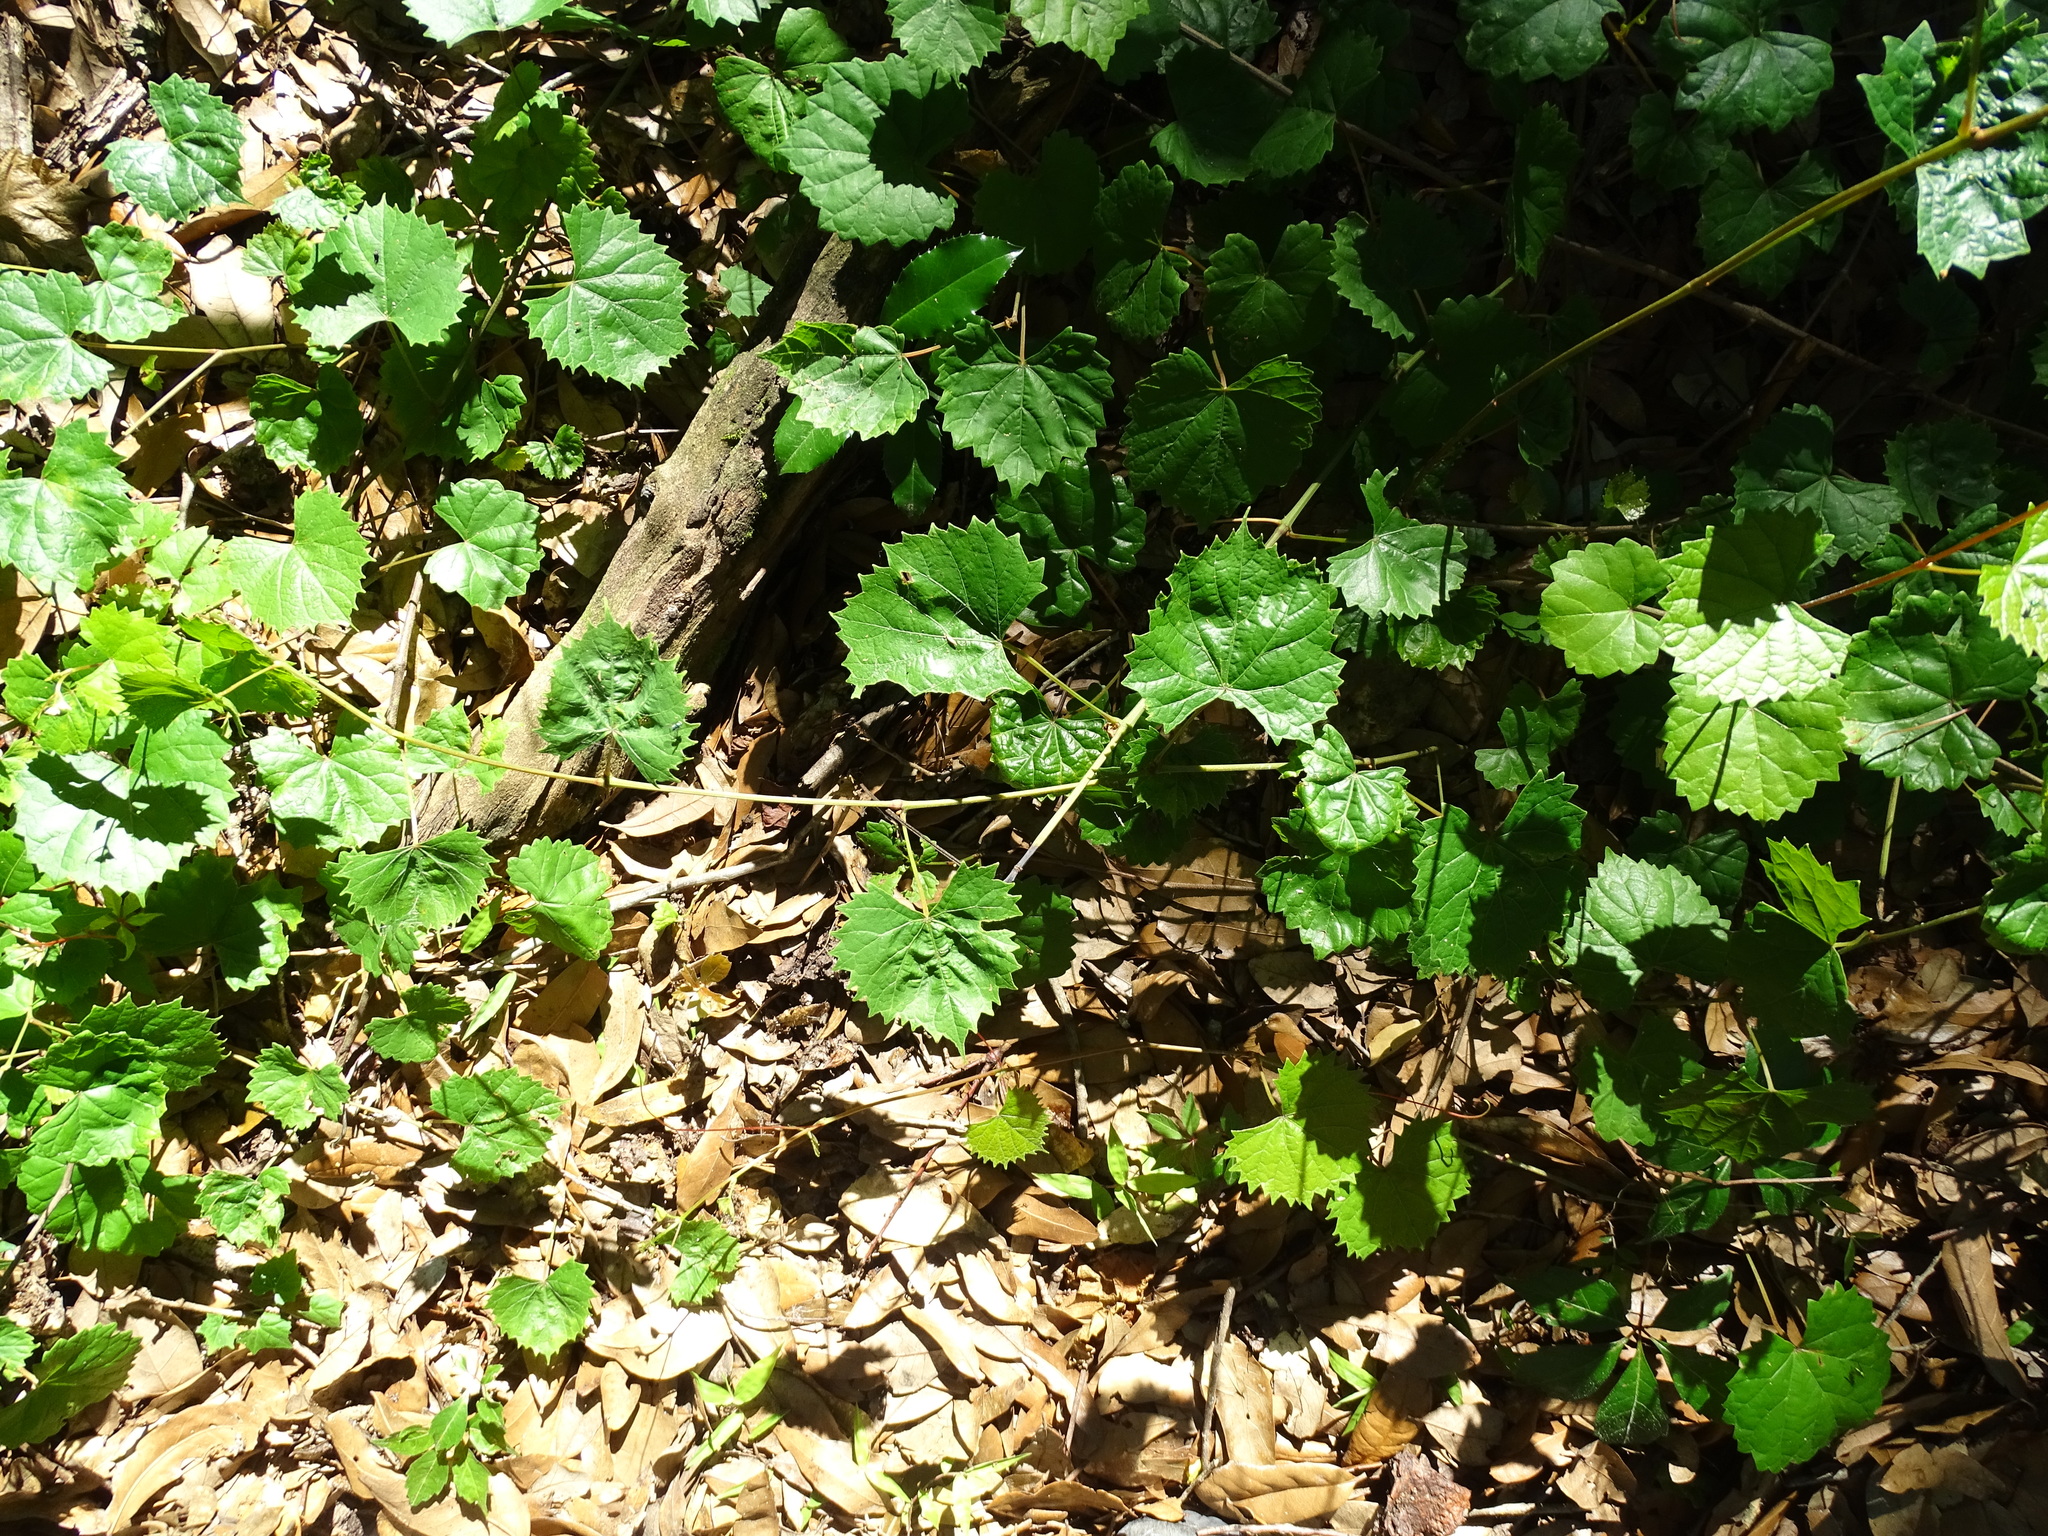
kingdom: Plantae
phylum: Tracheophyta
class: Magnoliopsida
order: Vitales
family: Vitaceae
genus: Vitis
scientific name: Vitis rotundifolia
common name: Muscadine grape
